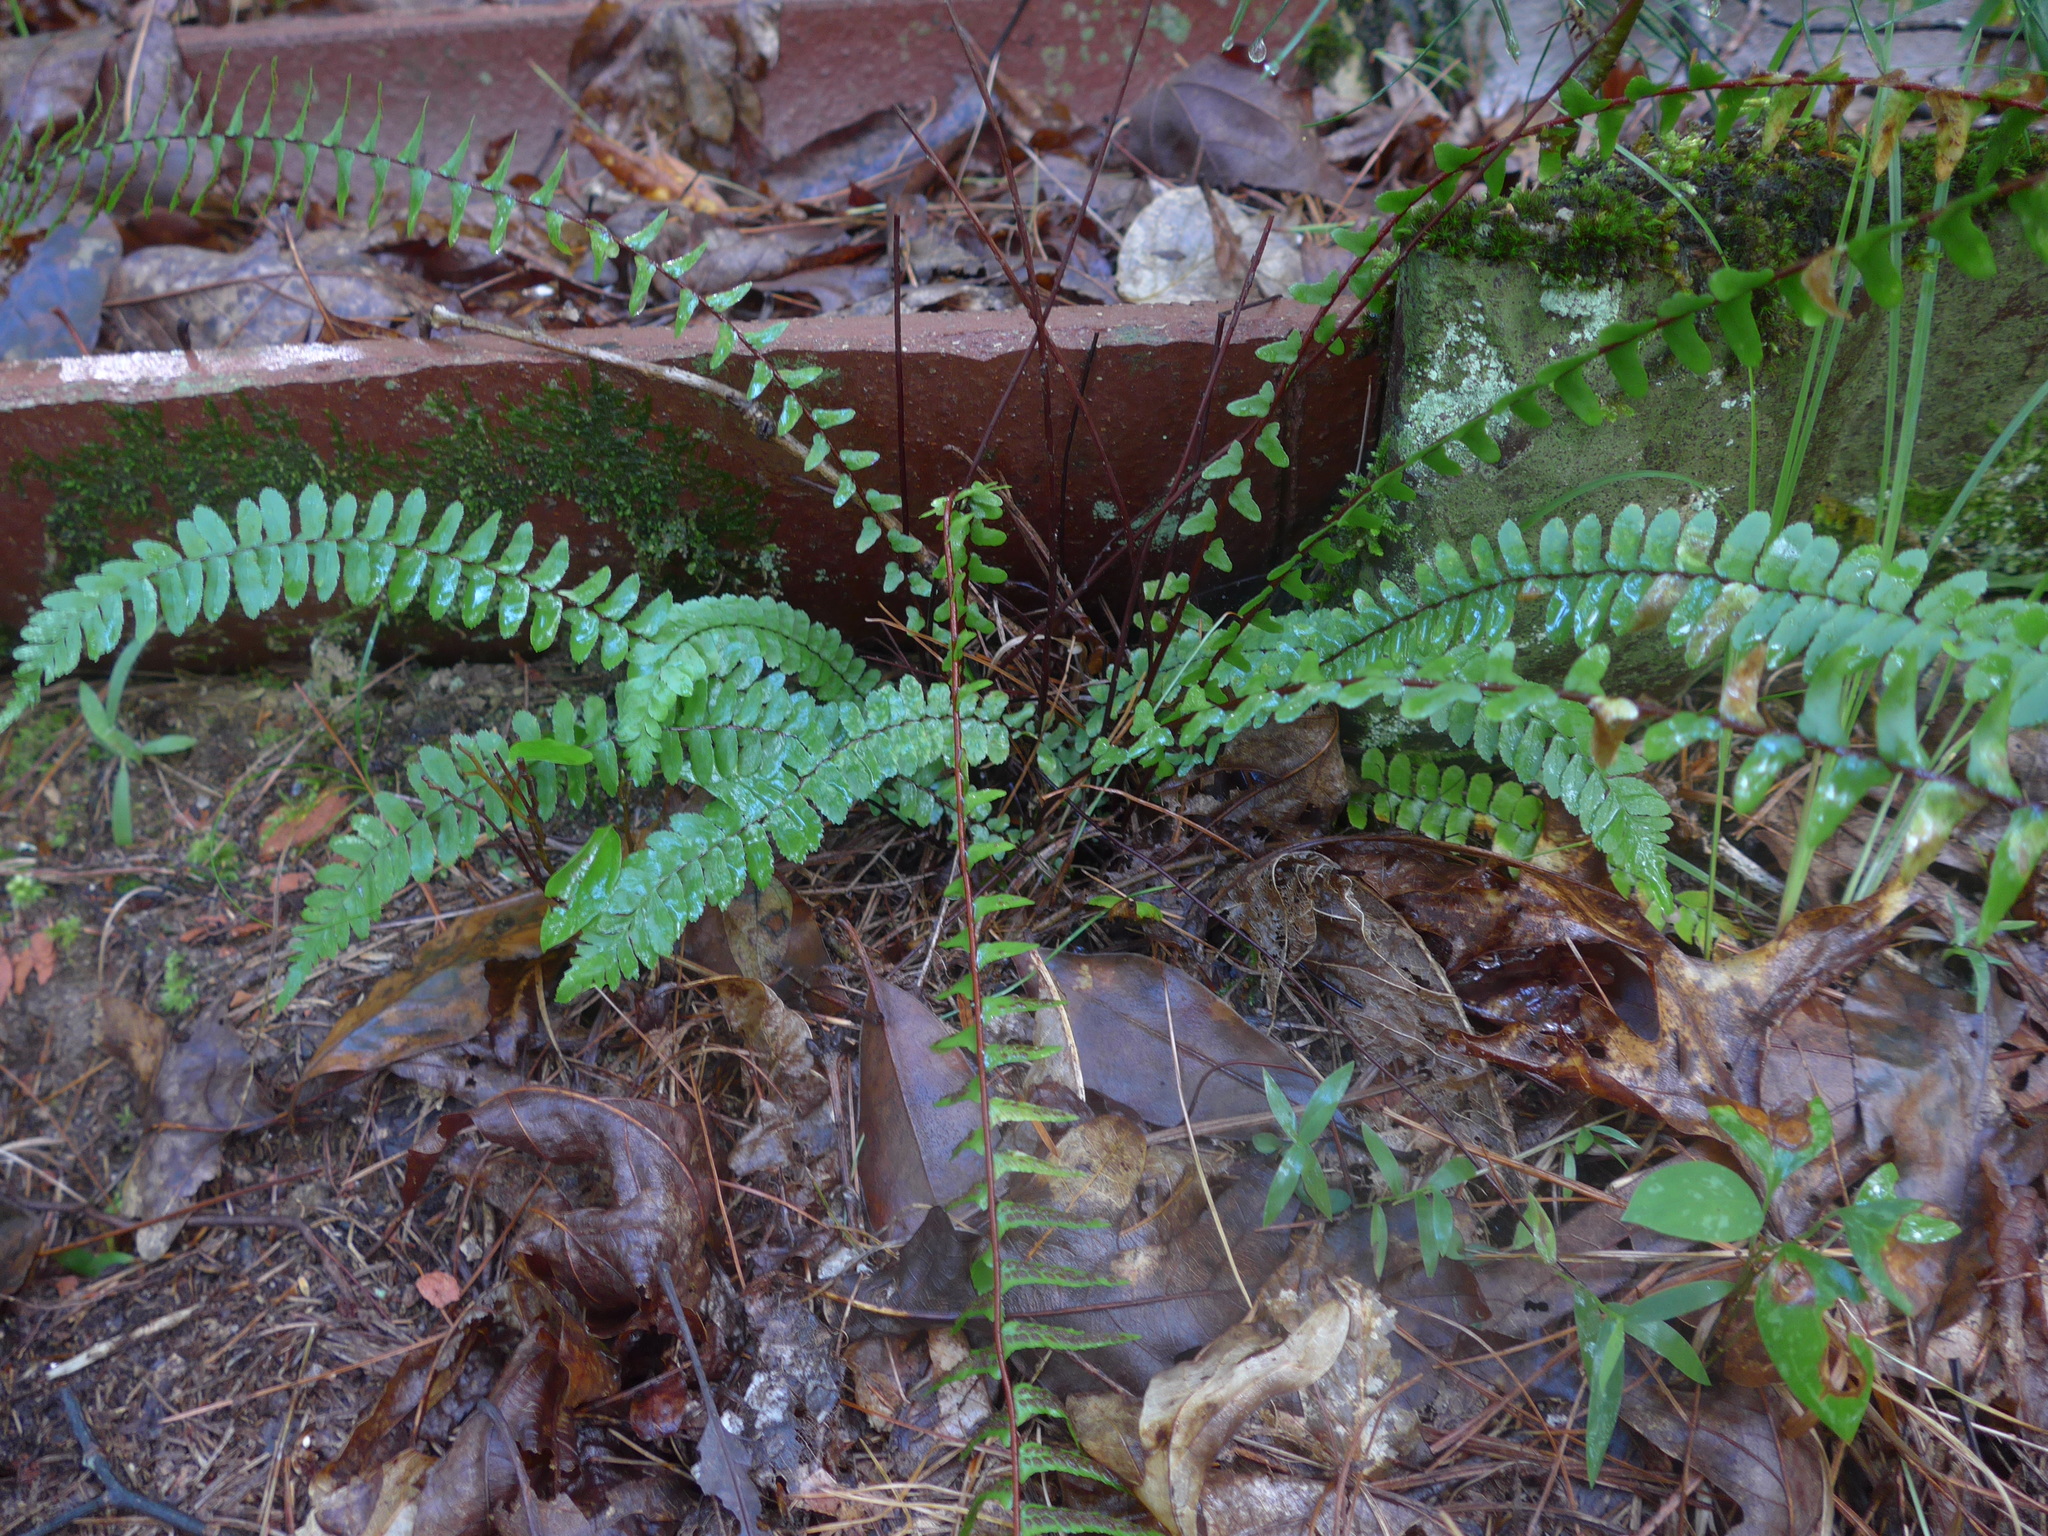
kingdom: Plantae
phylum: Tracheophyta
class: Polypodiopsida
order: Polypodiales
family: Aspleniaceae
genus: Asplenium
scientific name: Asplenium platyneuron
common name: Ebony spleenwort
